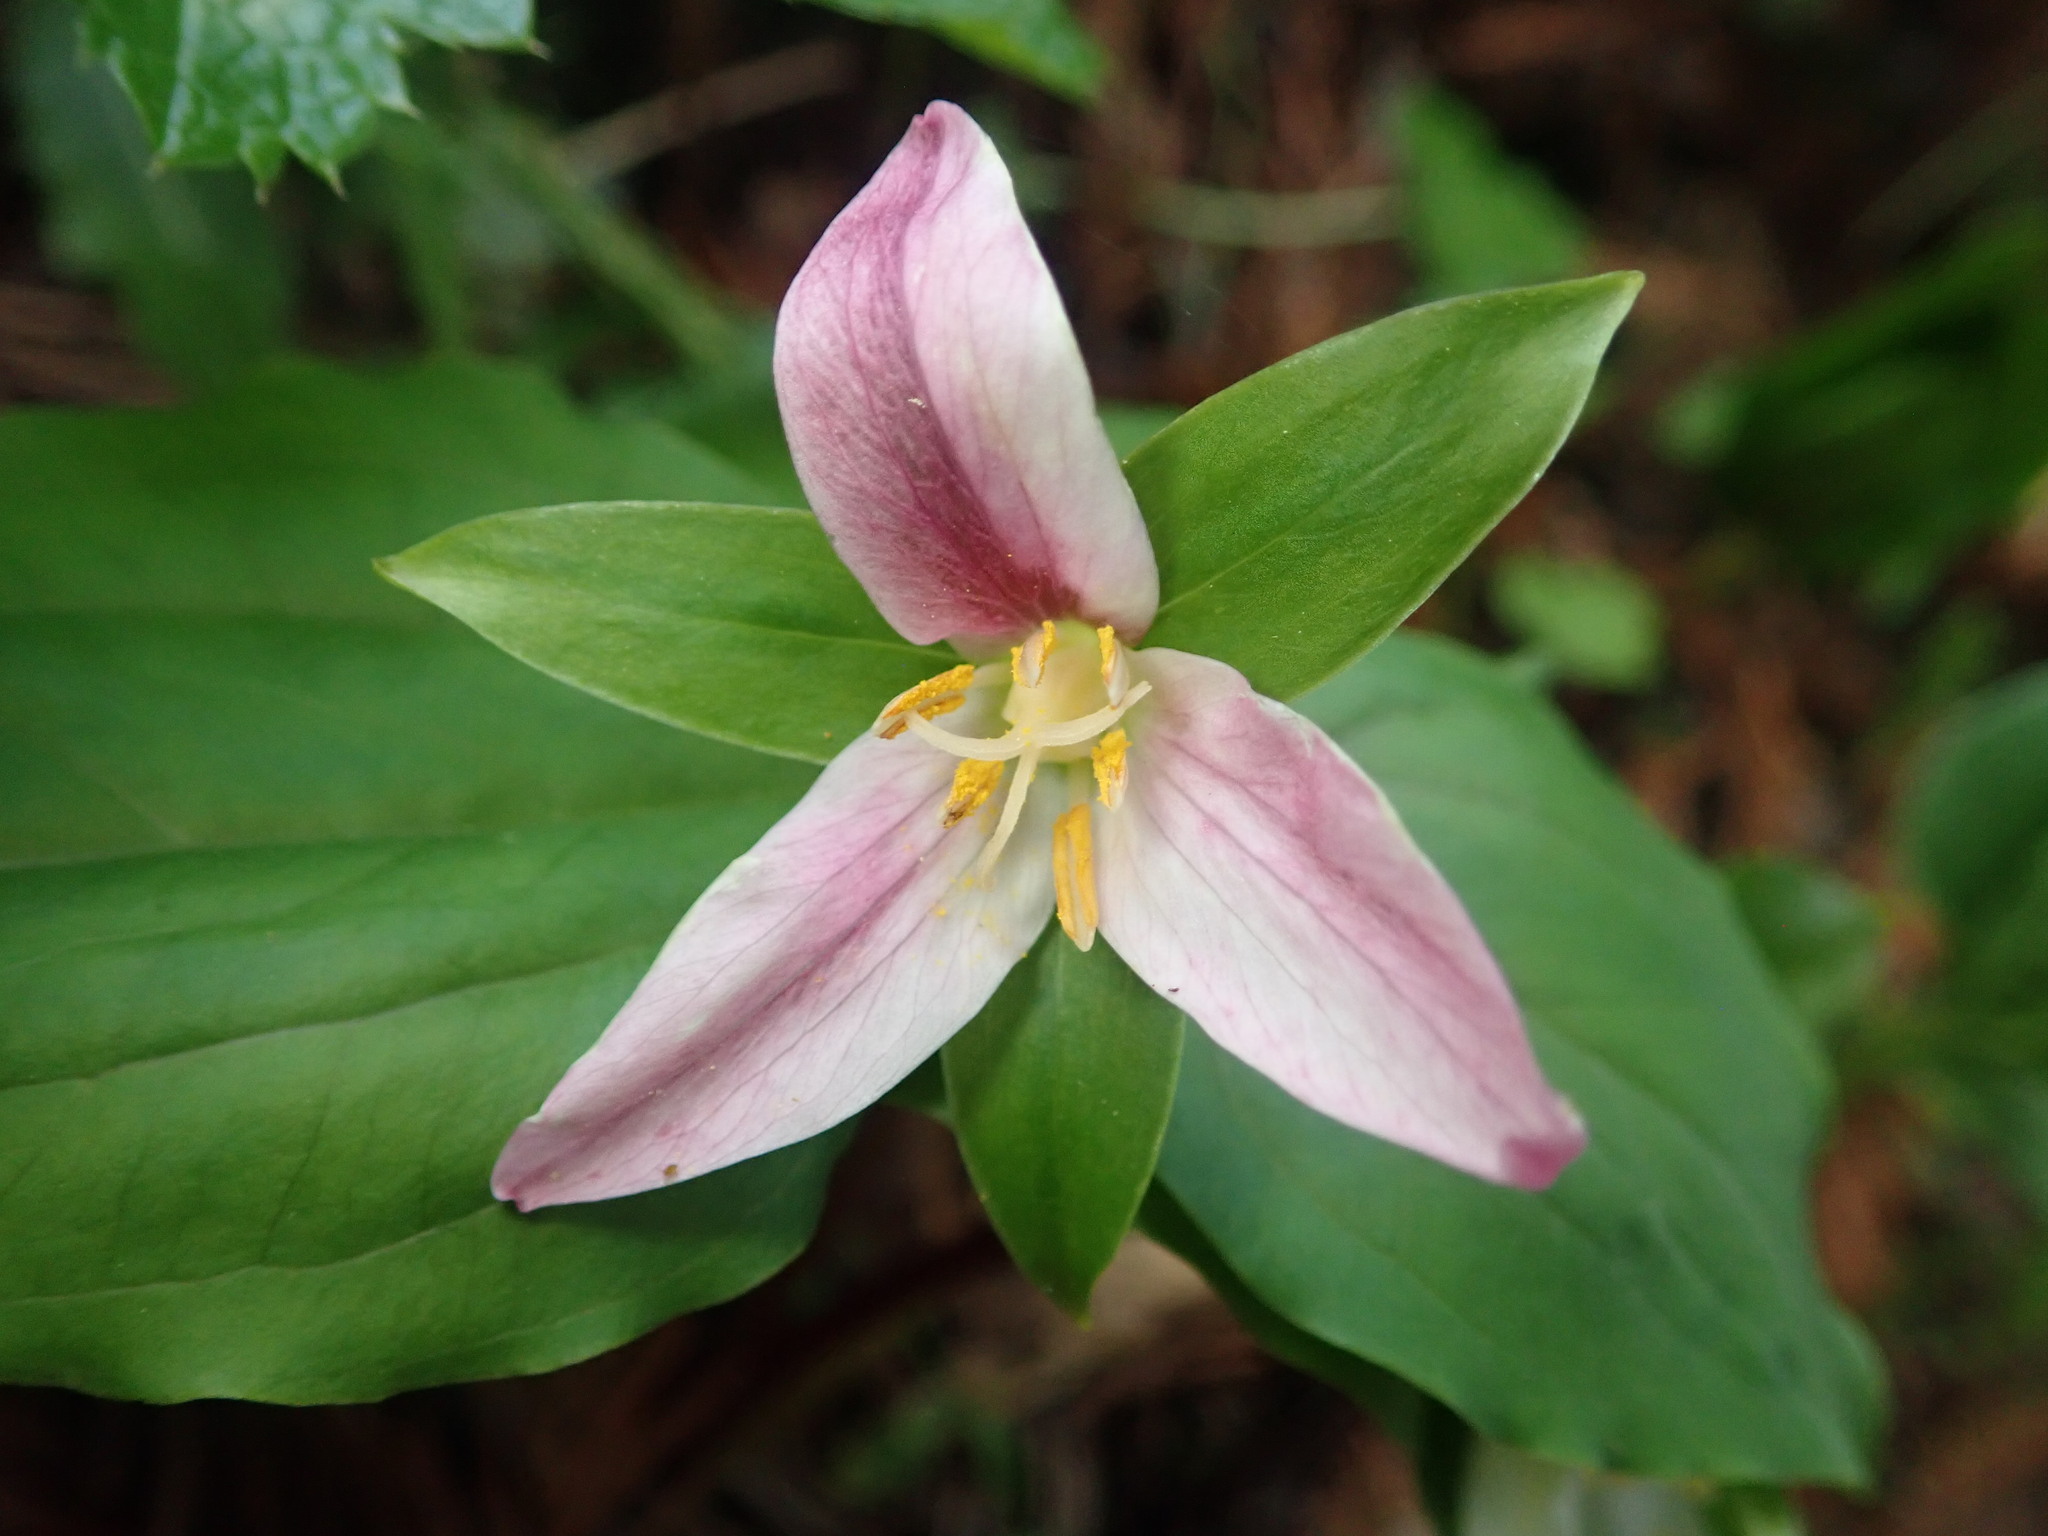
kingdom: Plantae
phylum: Tracheophyta
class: Liliopsida
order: Liliales
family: Melanthiaceae
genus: Trillium
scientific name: Trillium ovatum
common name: Pacific trillium
